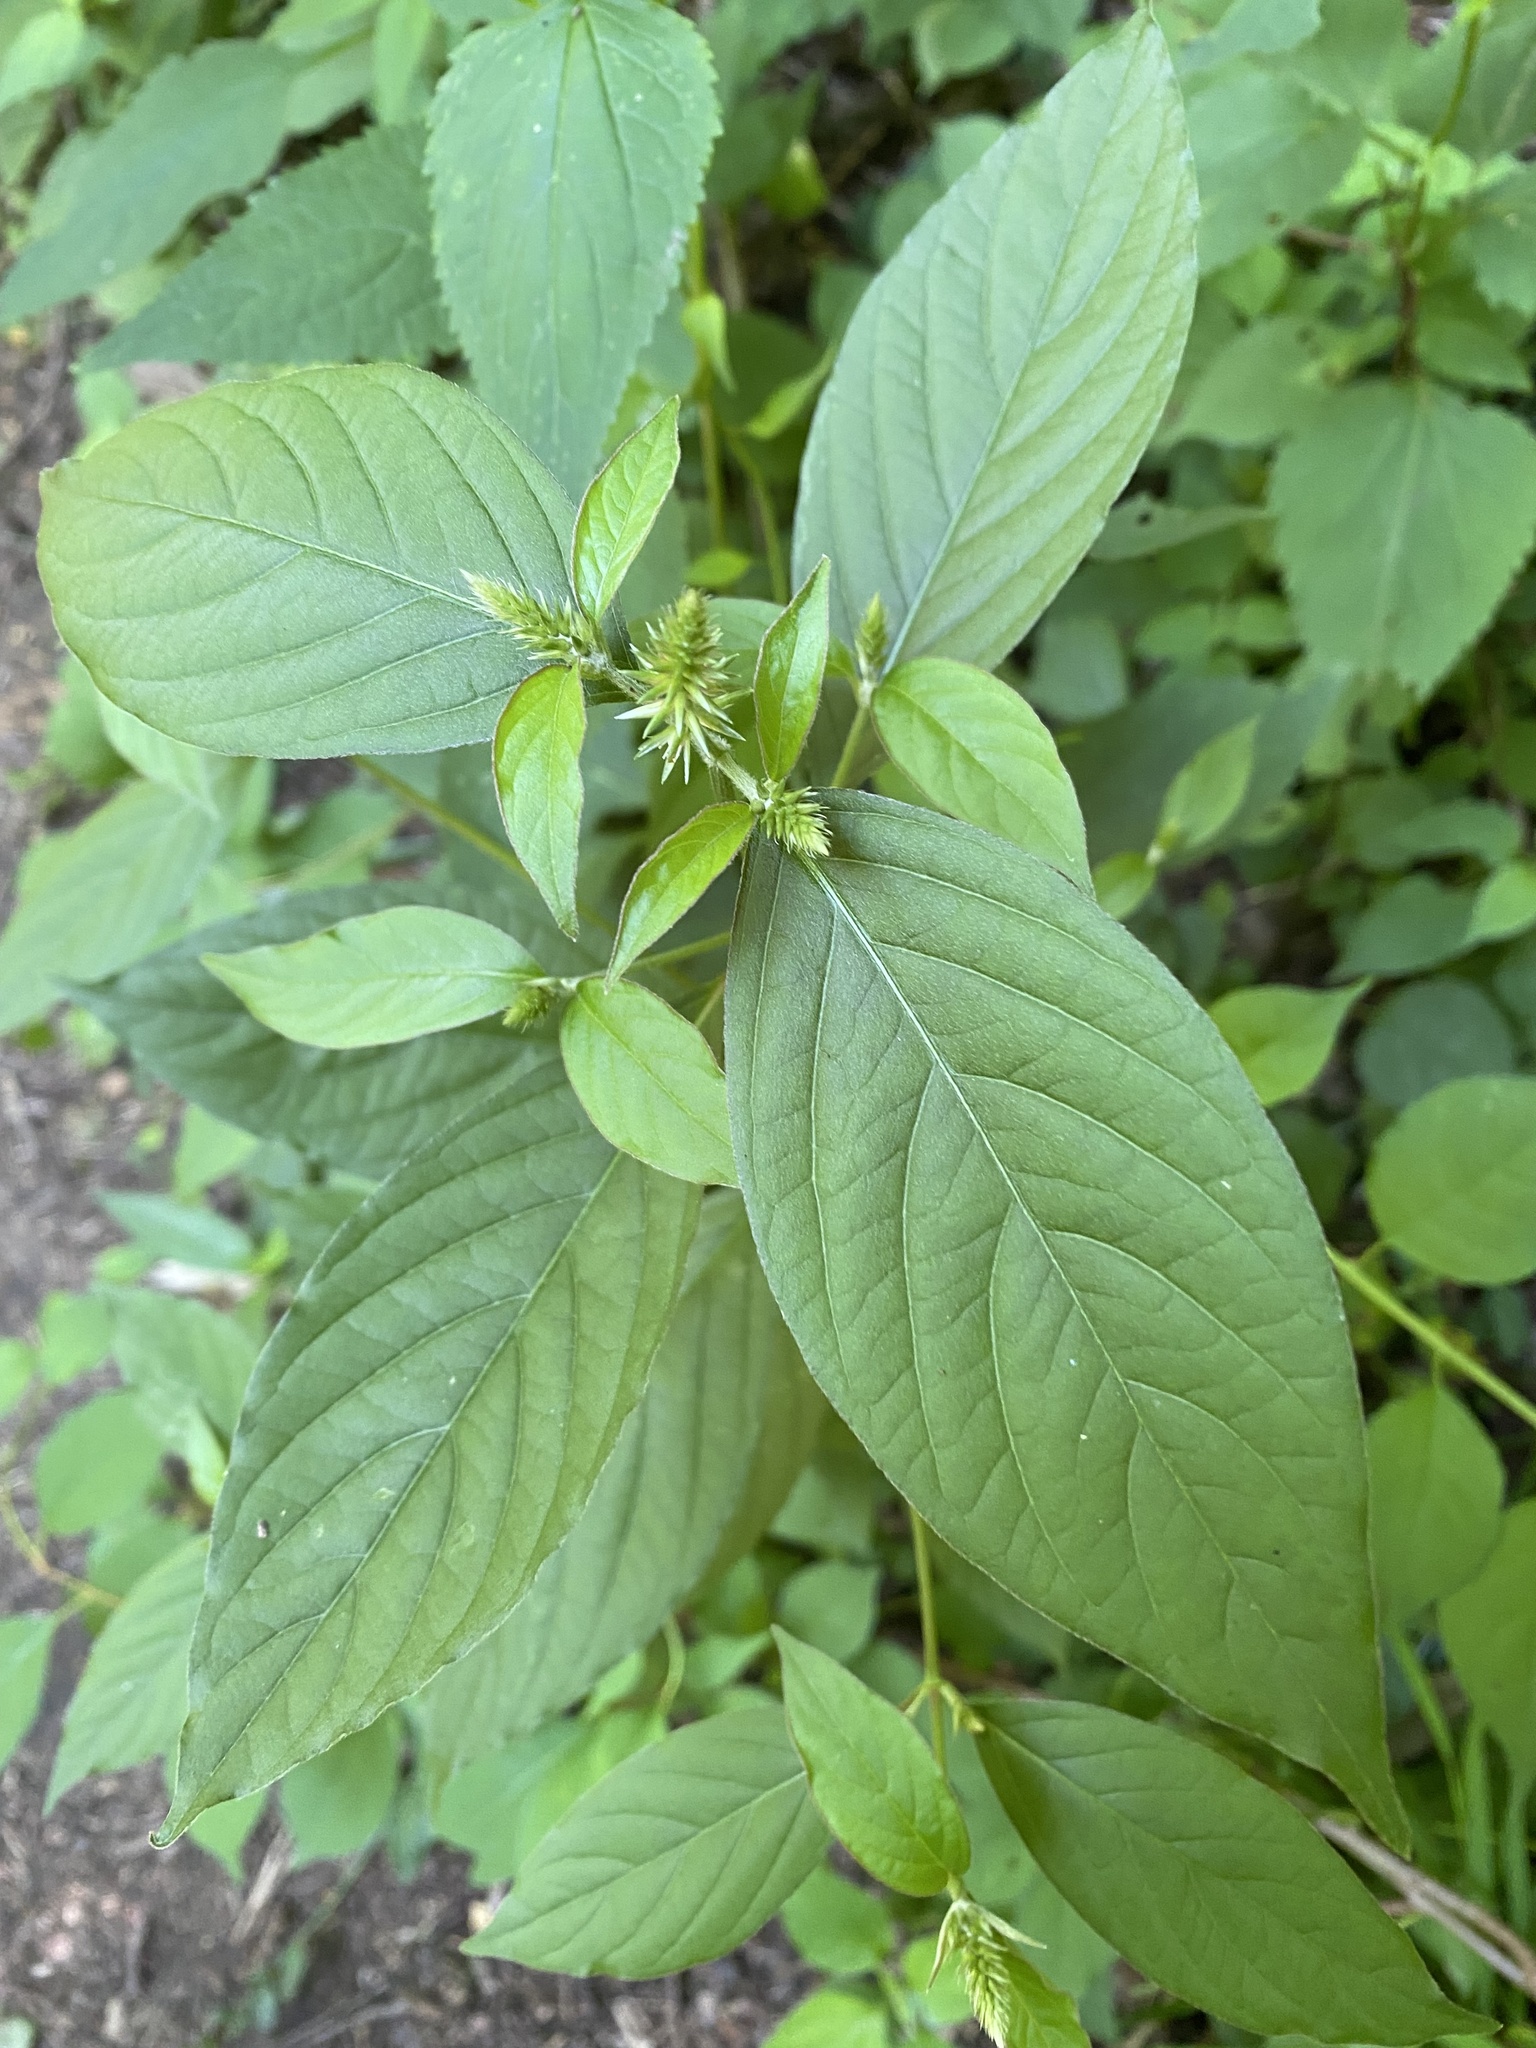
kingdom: Plantae
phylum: Tracheophyta
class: Magnoliopsida
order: Caryophyllales
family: Amaranthaceae
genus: Achyranthes
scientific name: Achyranthes bidentata
